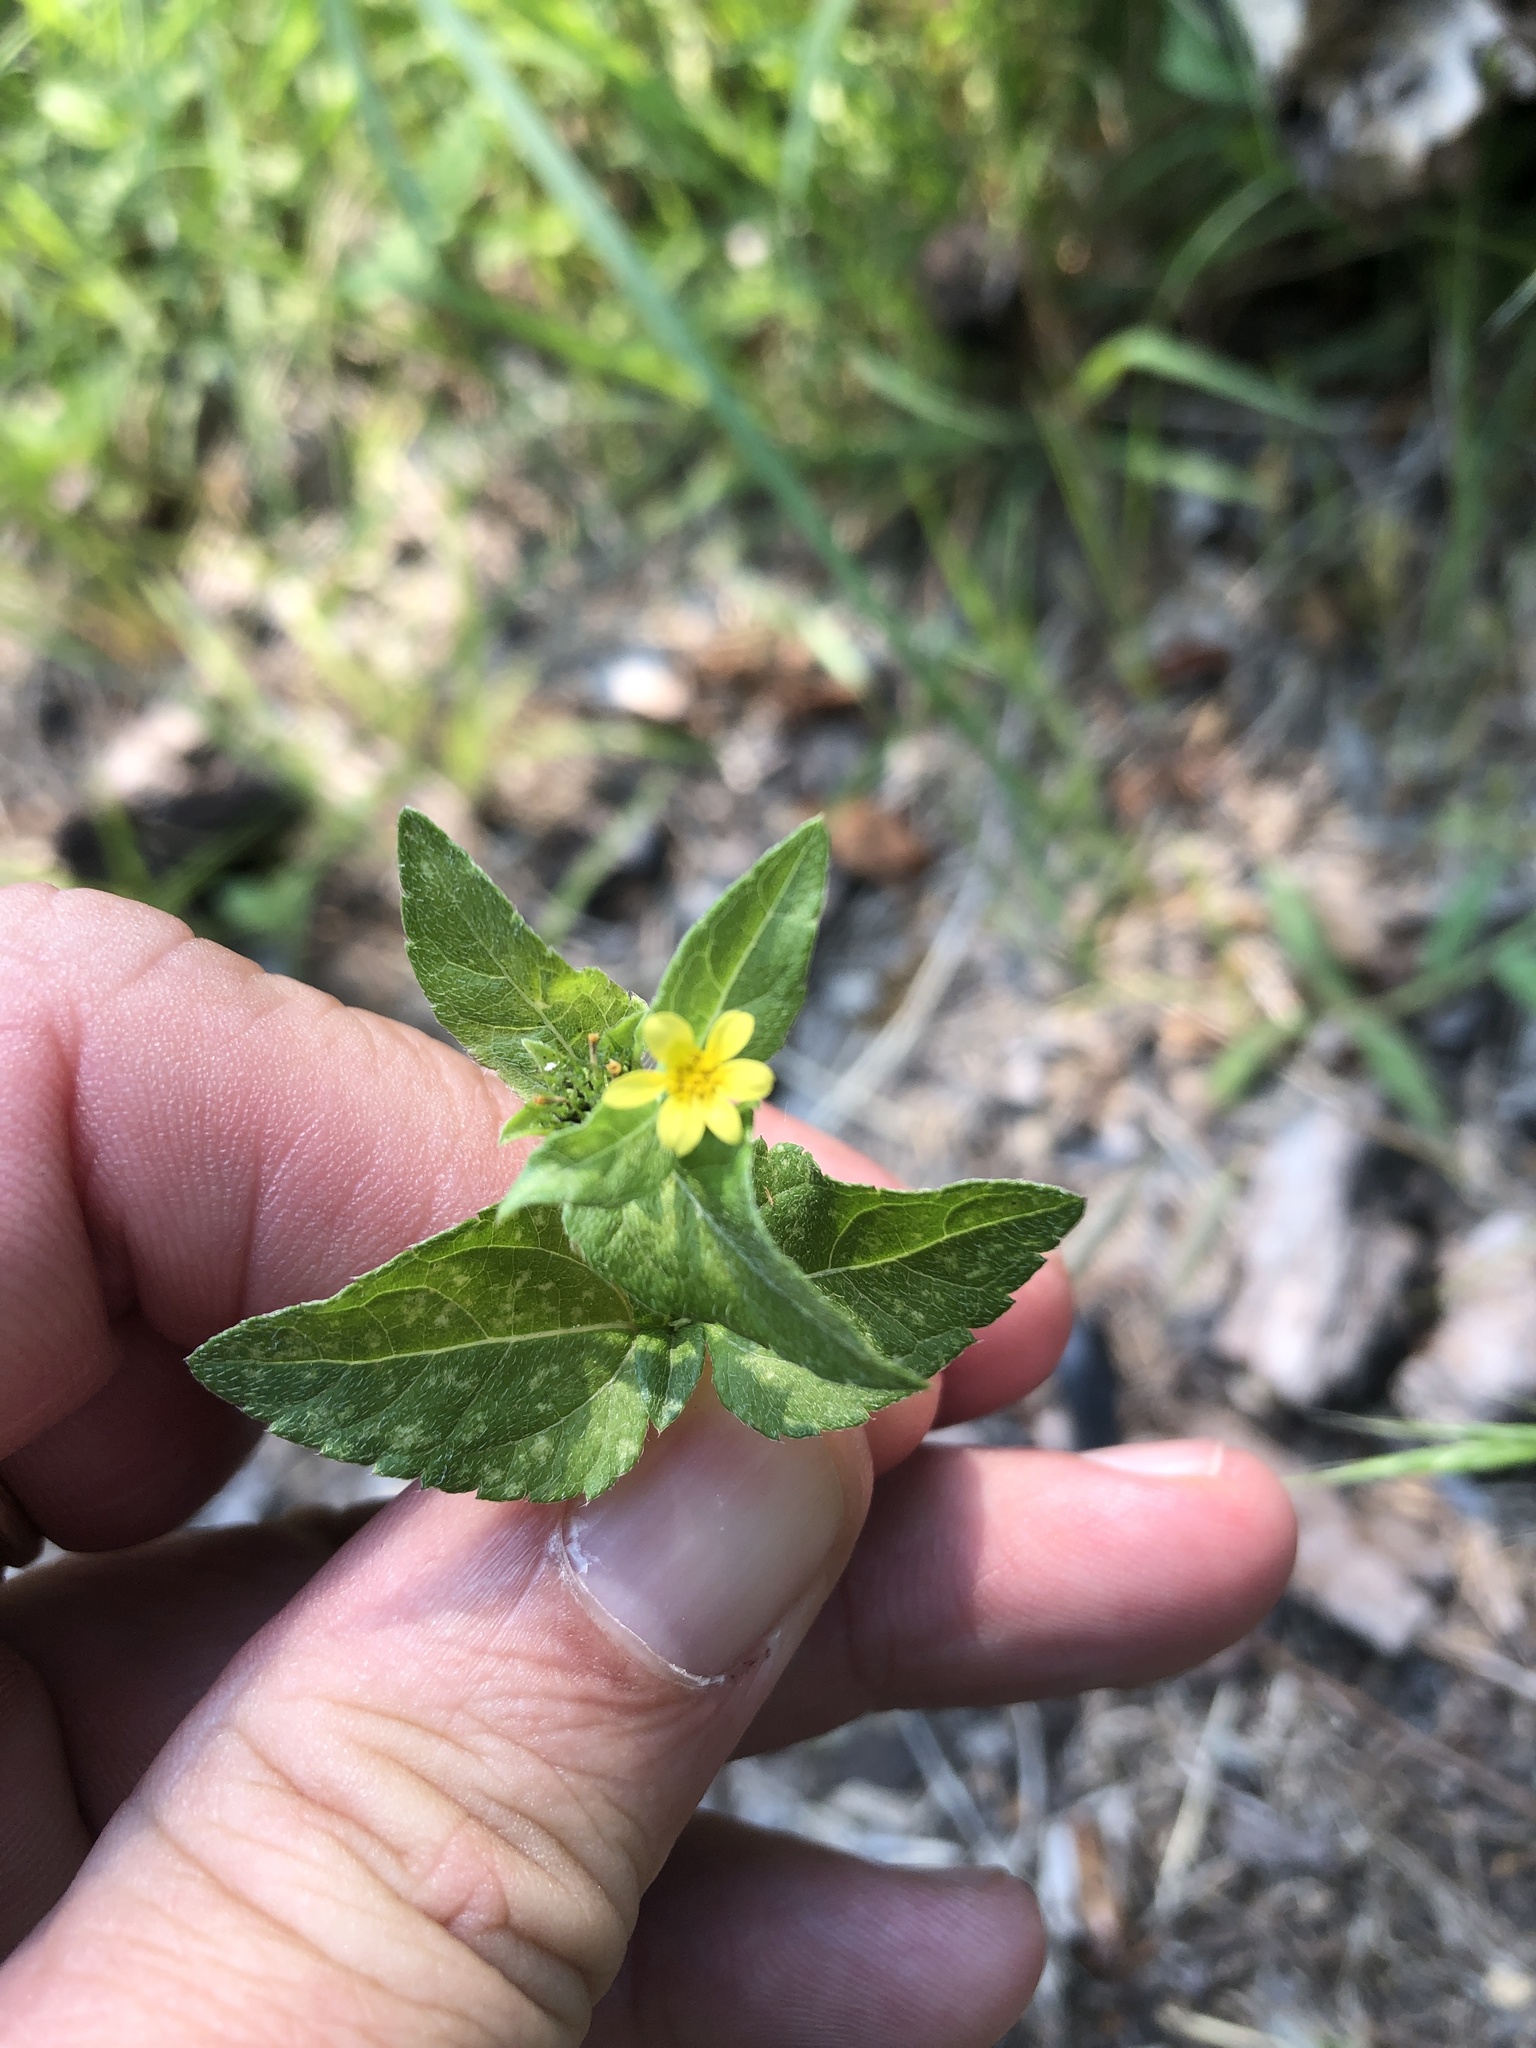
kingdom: Plantae
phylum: Tracheophyta
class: Magnoliopsida
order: Asterales
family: Asteraceae
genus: Calyptocarpus
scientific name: Calyptocarpus vialis
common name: Straggler daisy
